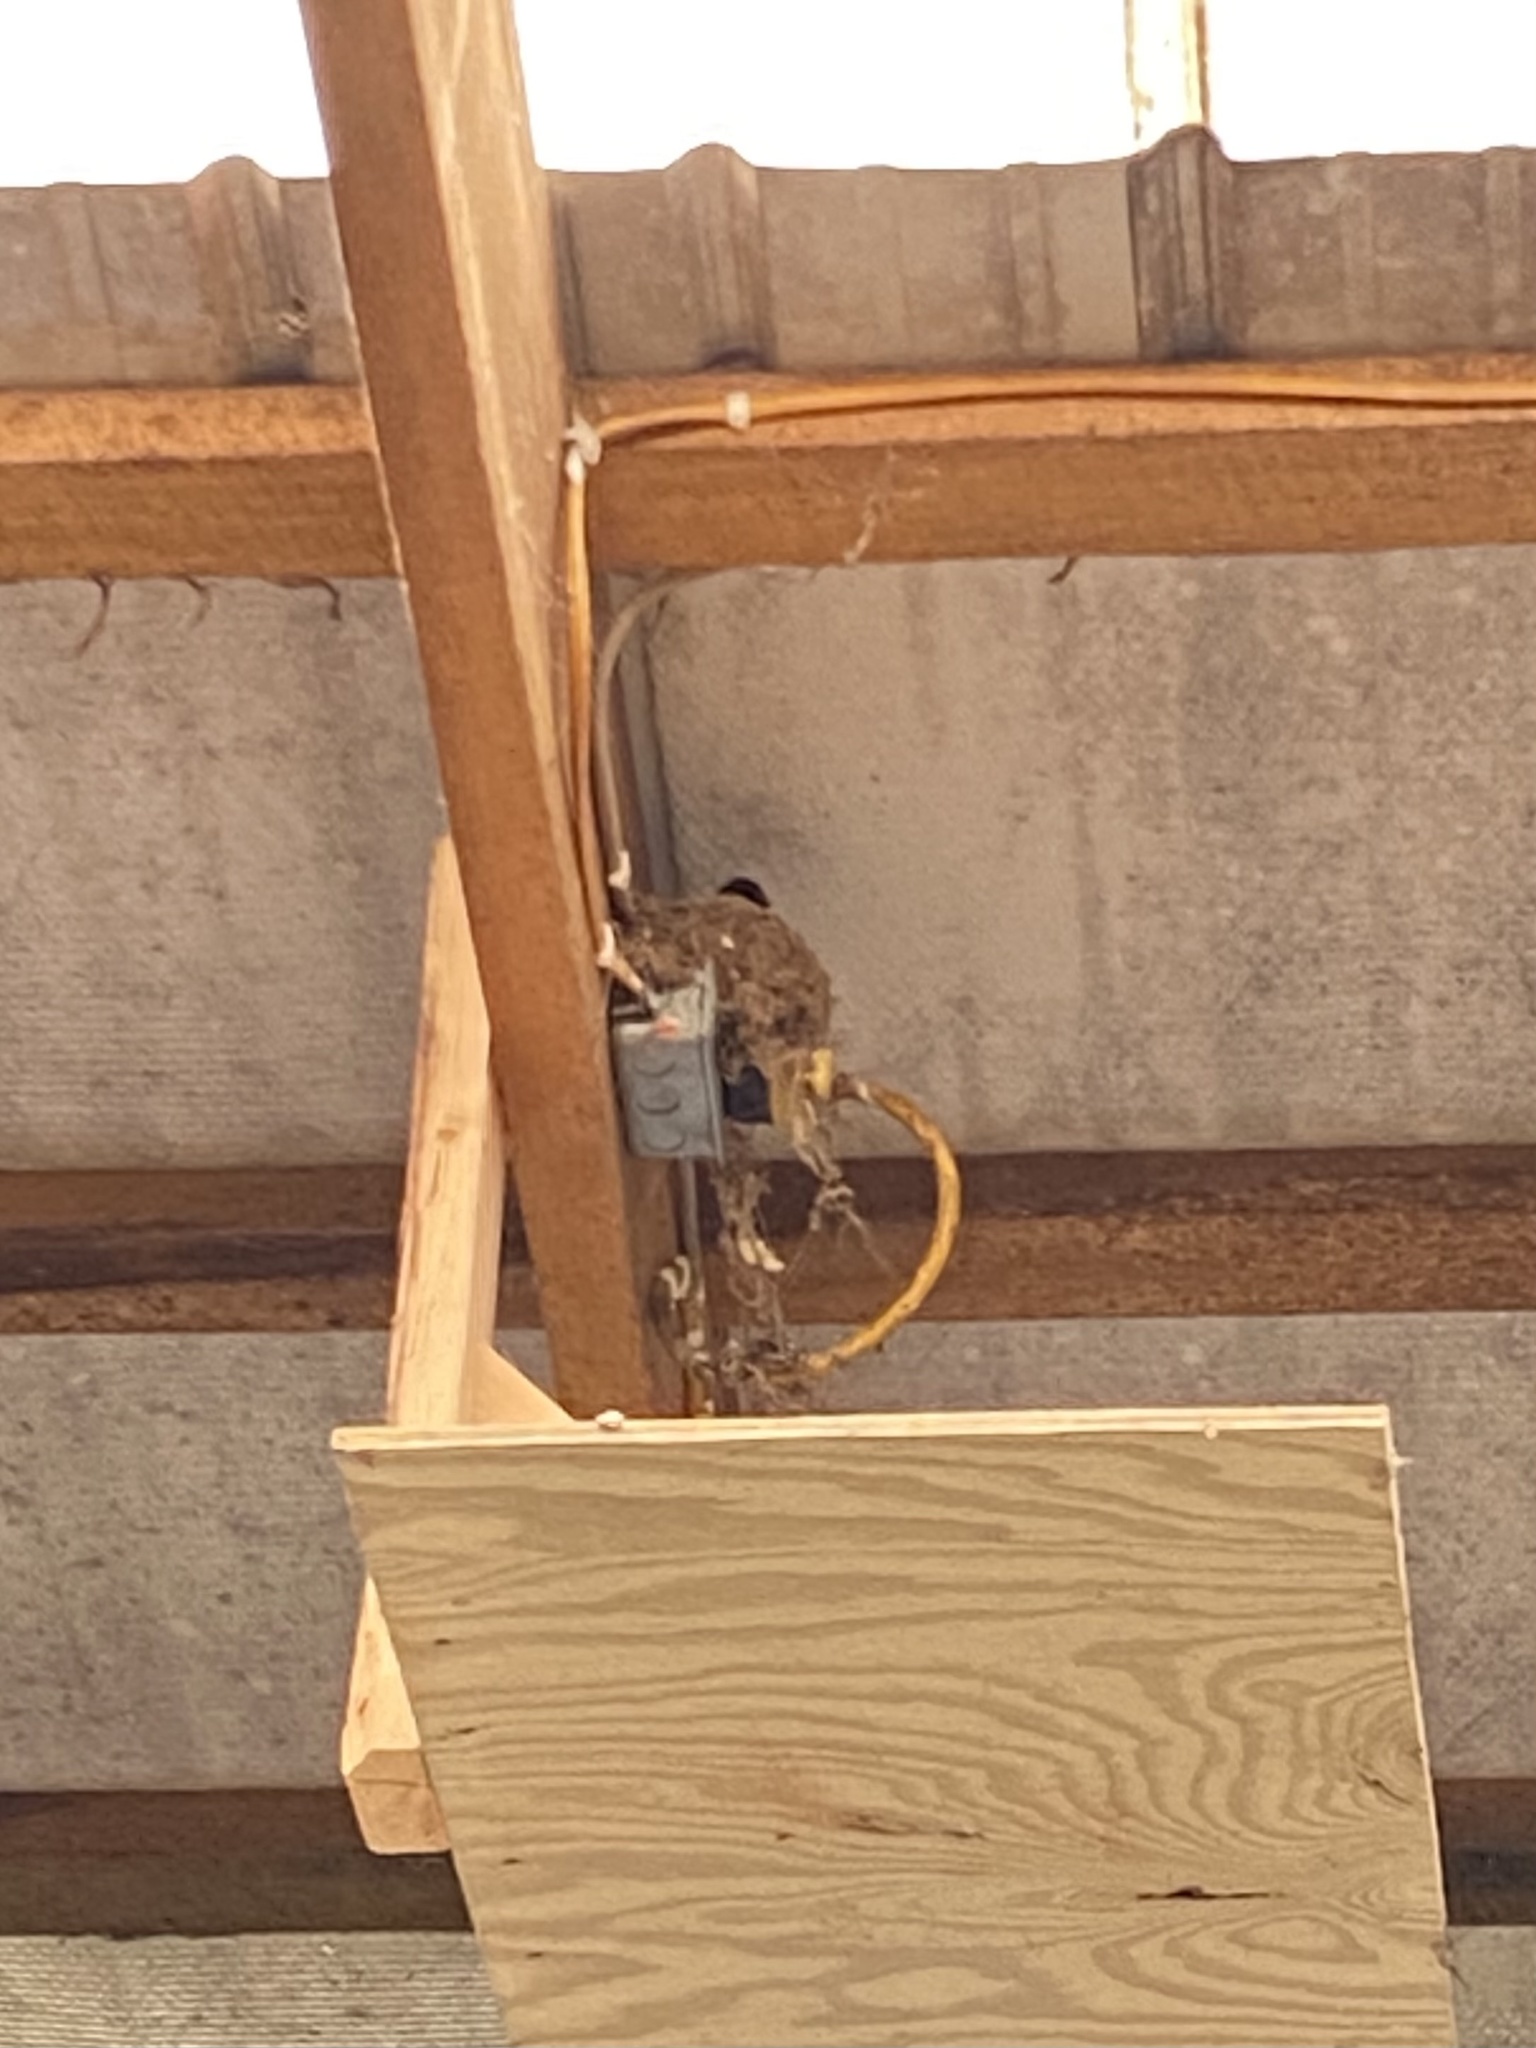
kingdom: Animalia
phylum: Chordata
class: Aves
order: Passeriformes
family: Tyrannidae
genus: Sayornis
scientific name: Sayornis phoebe
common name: Eastern phoebe
